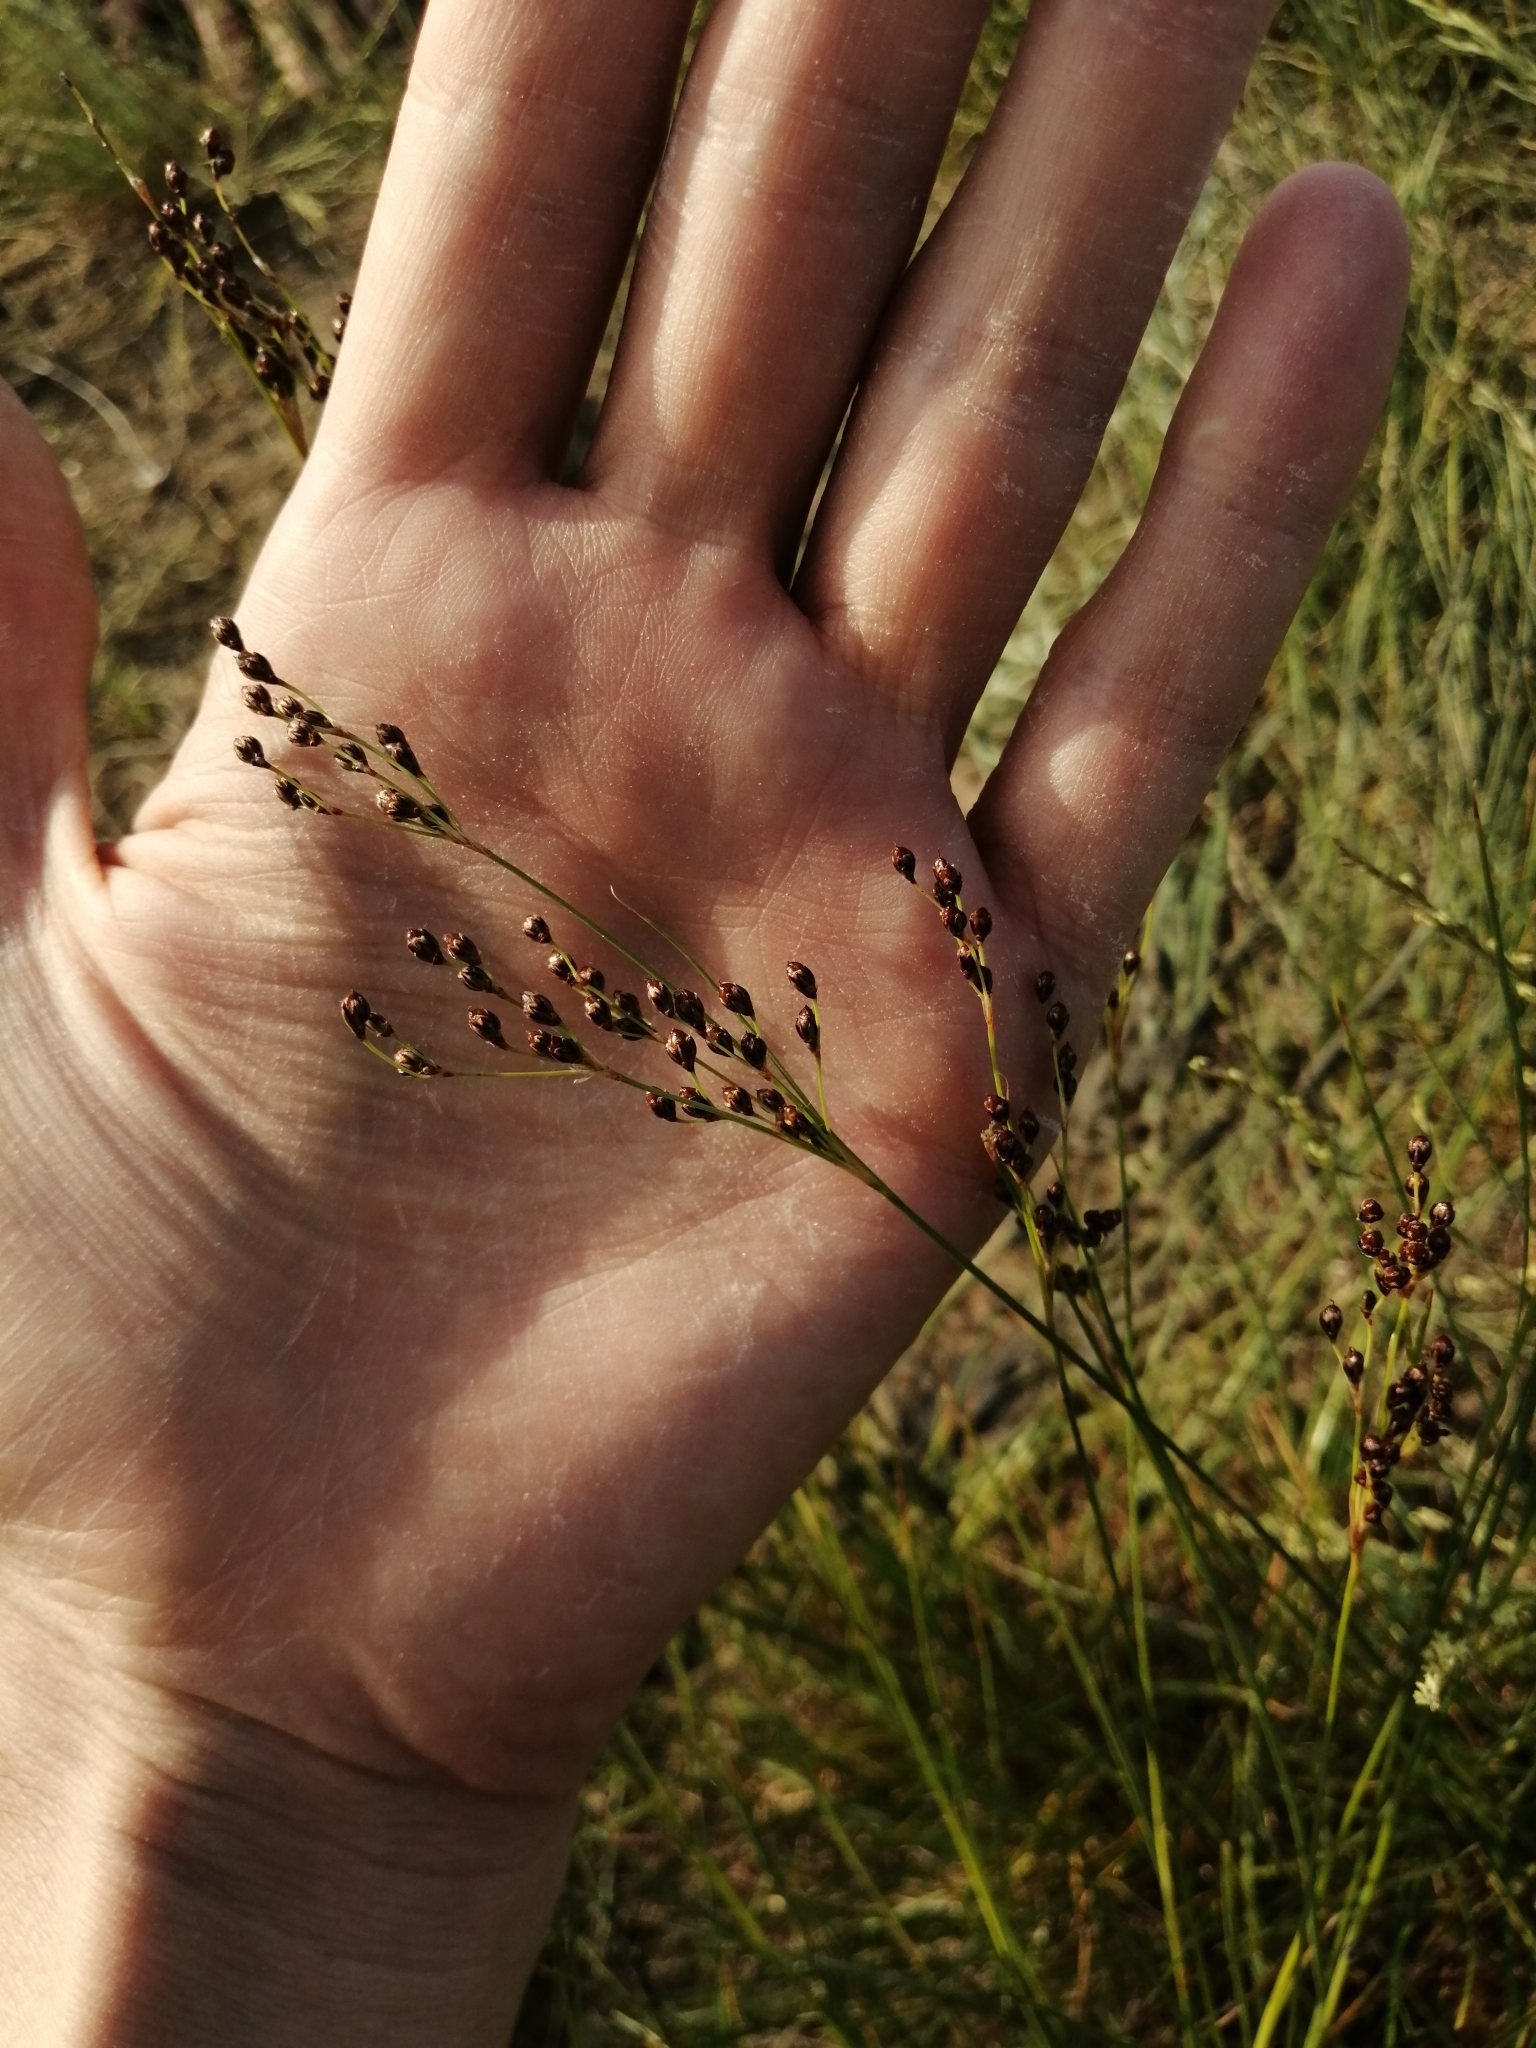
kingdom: Plantae
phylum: Tracheophyta
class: Liliopsida
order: Poales
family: Juncaceae
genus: Juncus
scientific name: Juncus compressus
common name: Round-fruited rush
